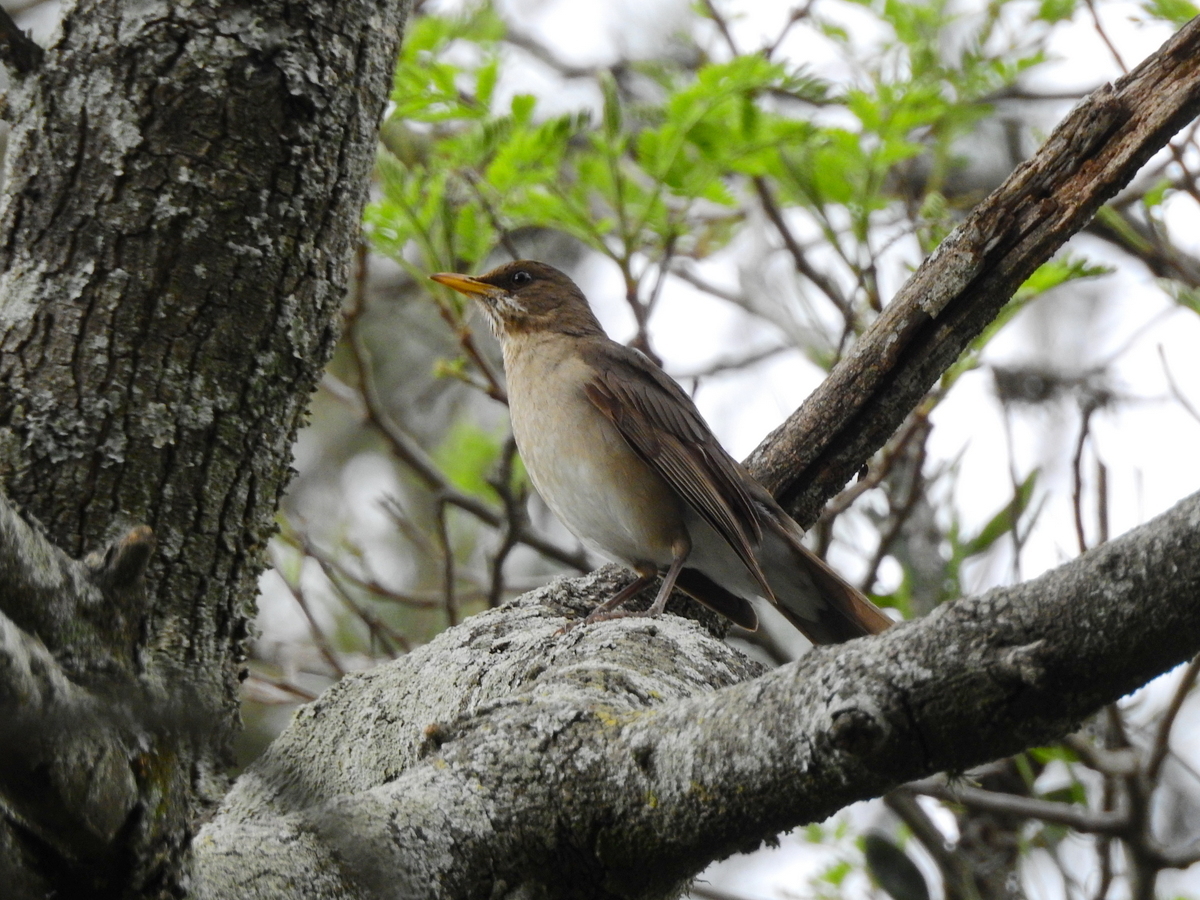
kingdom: Animalia
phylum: Chordata
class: Aves
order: Passeriformes
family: Turdidae
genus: Turdus
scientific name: Turdus amaurochalinus
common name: Creamy-bellied thrush
